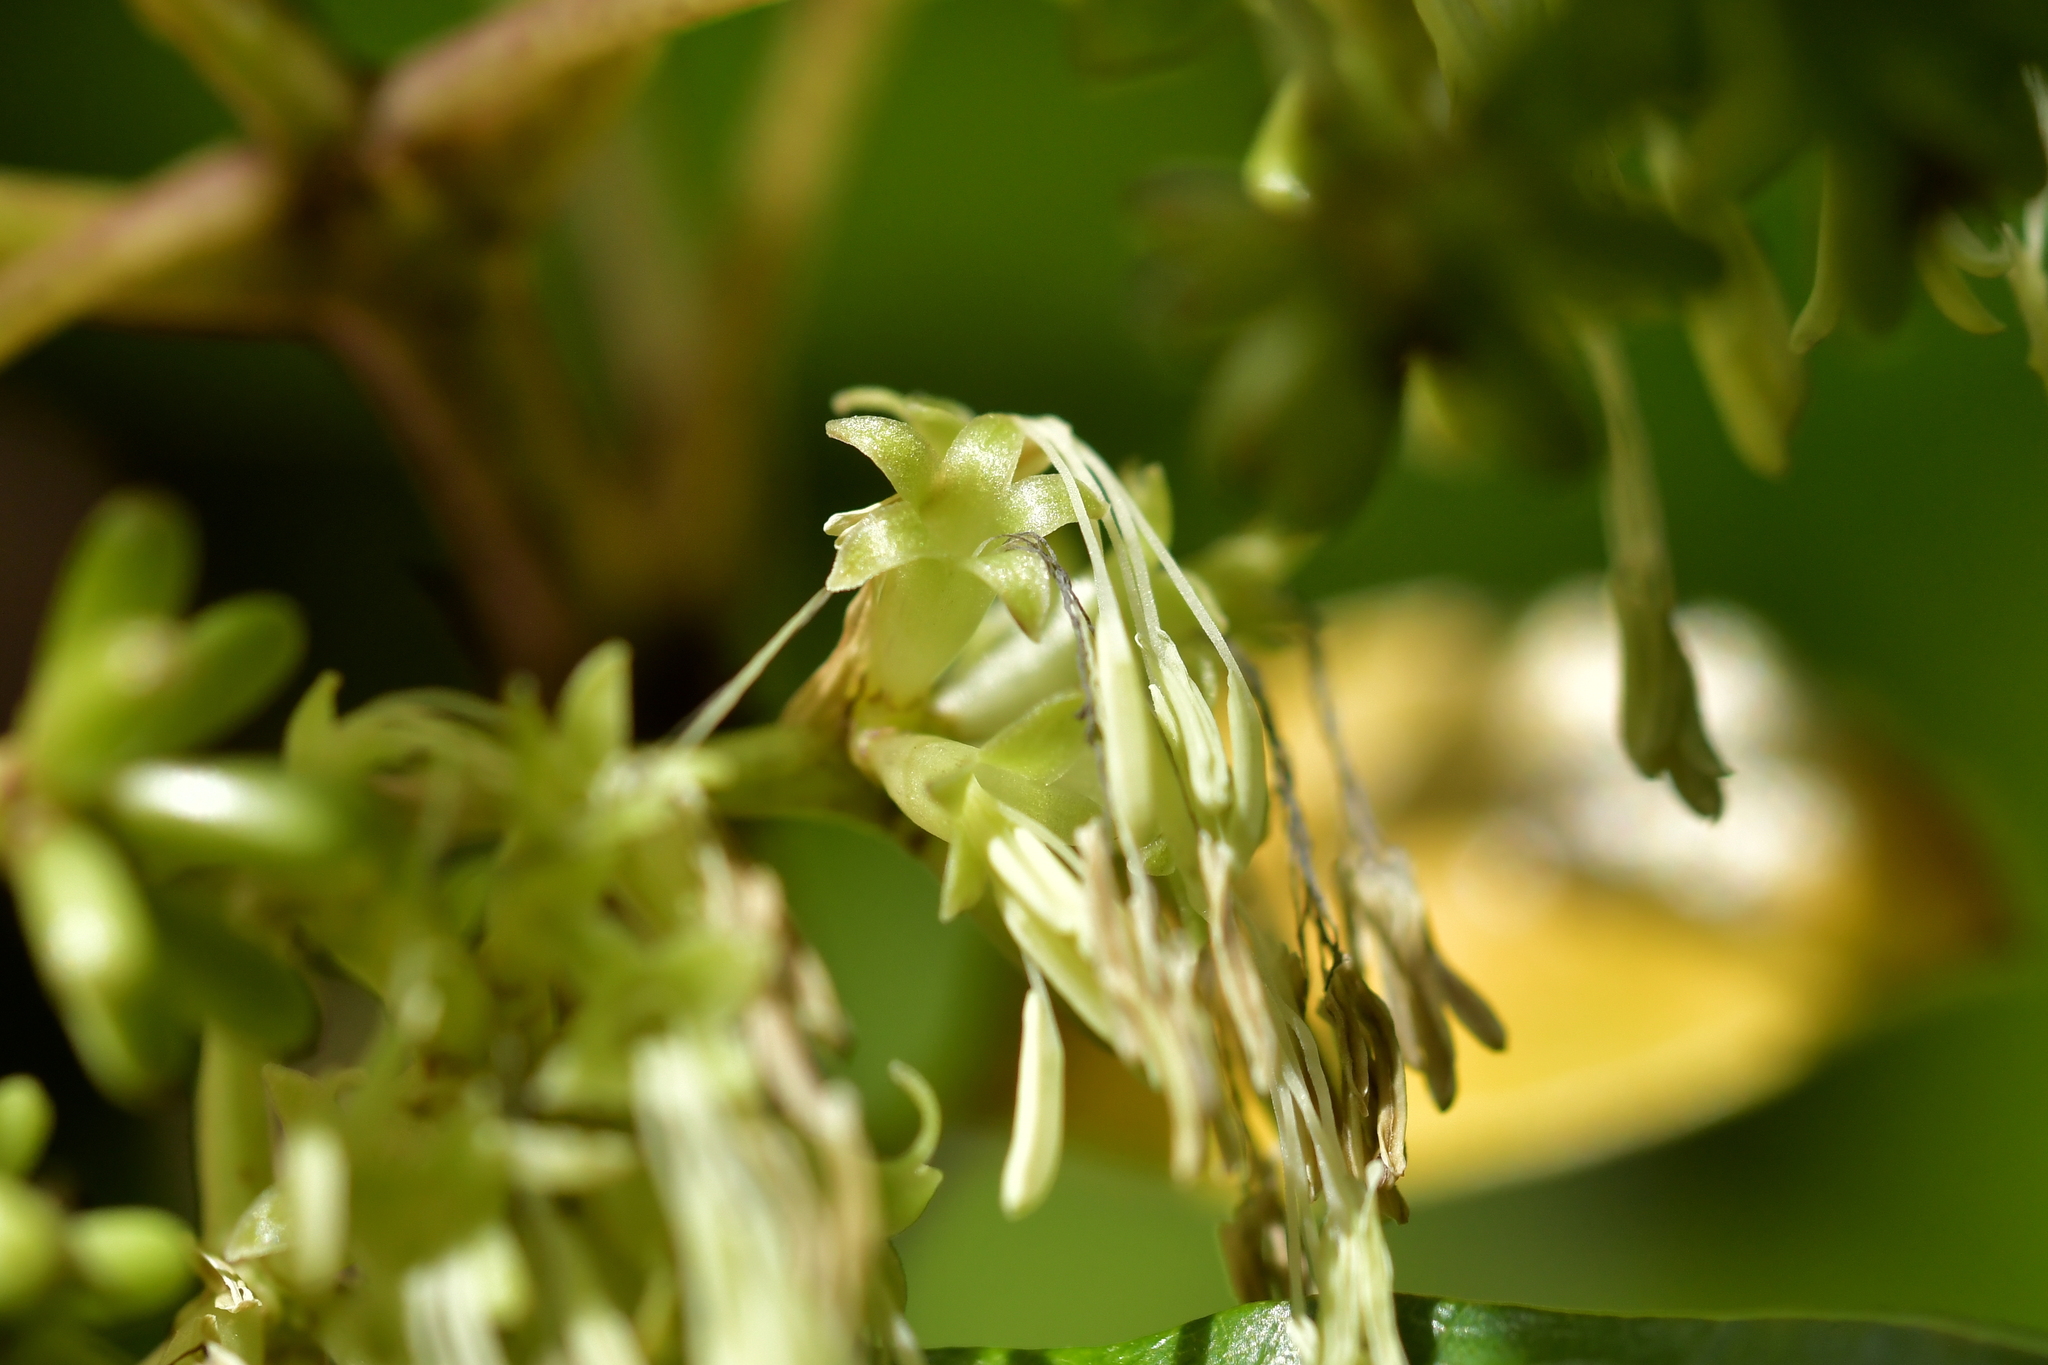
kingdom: Plantae
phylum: Tracheophyta
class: Magnoliopsida
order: Gentianales
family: Rubiaceae
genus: Coprosma
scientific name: Coprosma autumnalis
